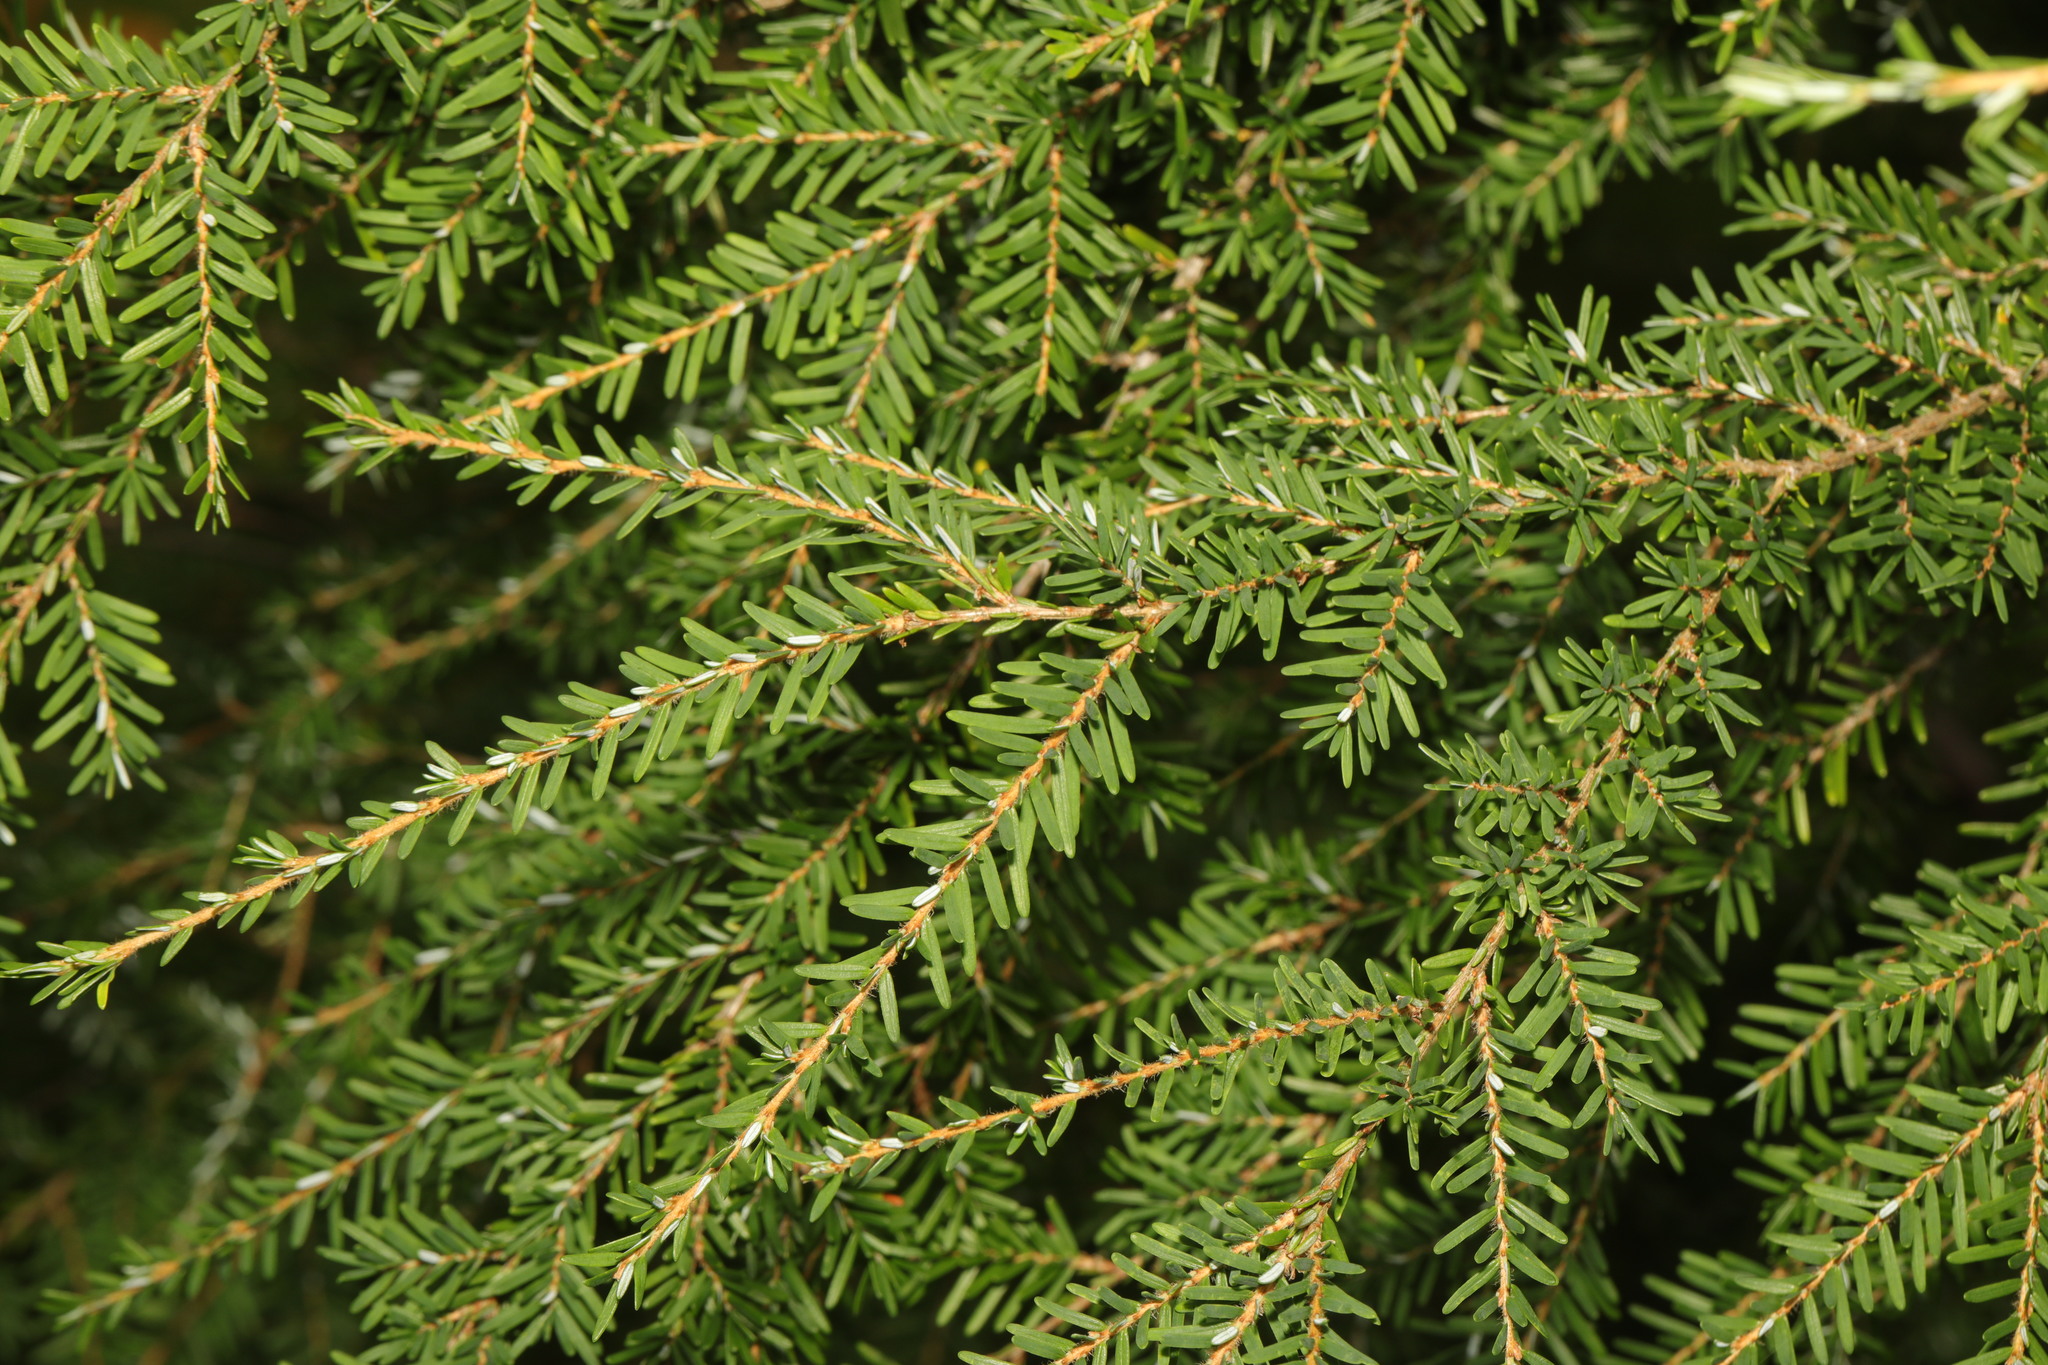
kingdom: Plantae
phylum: Tracheophyta
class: Pinopsida
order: Pinales
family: Pinaceae
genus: Tsuga
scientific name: Tsuga heterophylla
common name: Western hemlock
